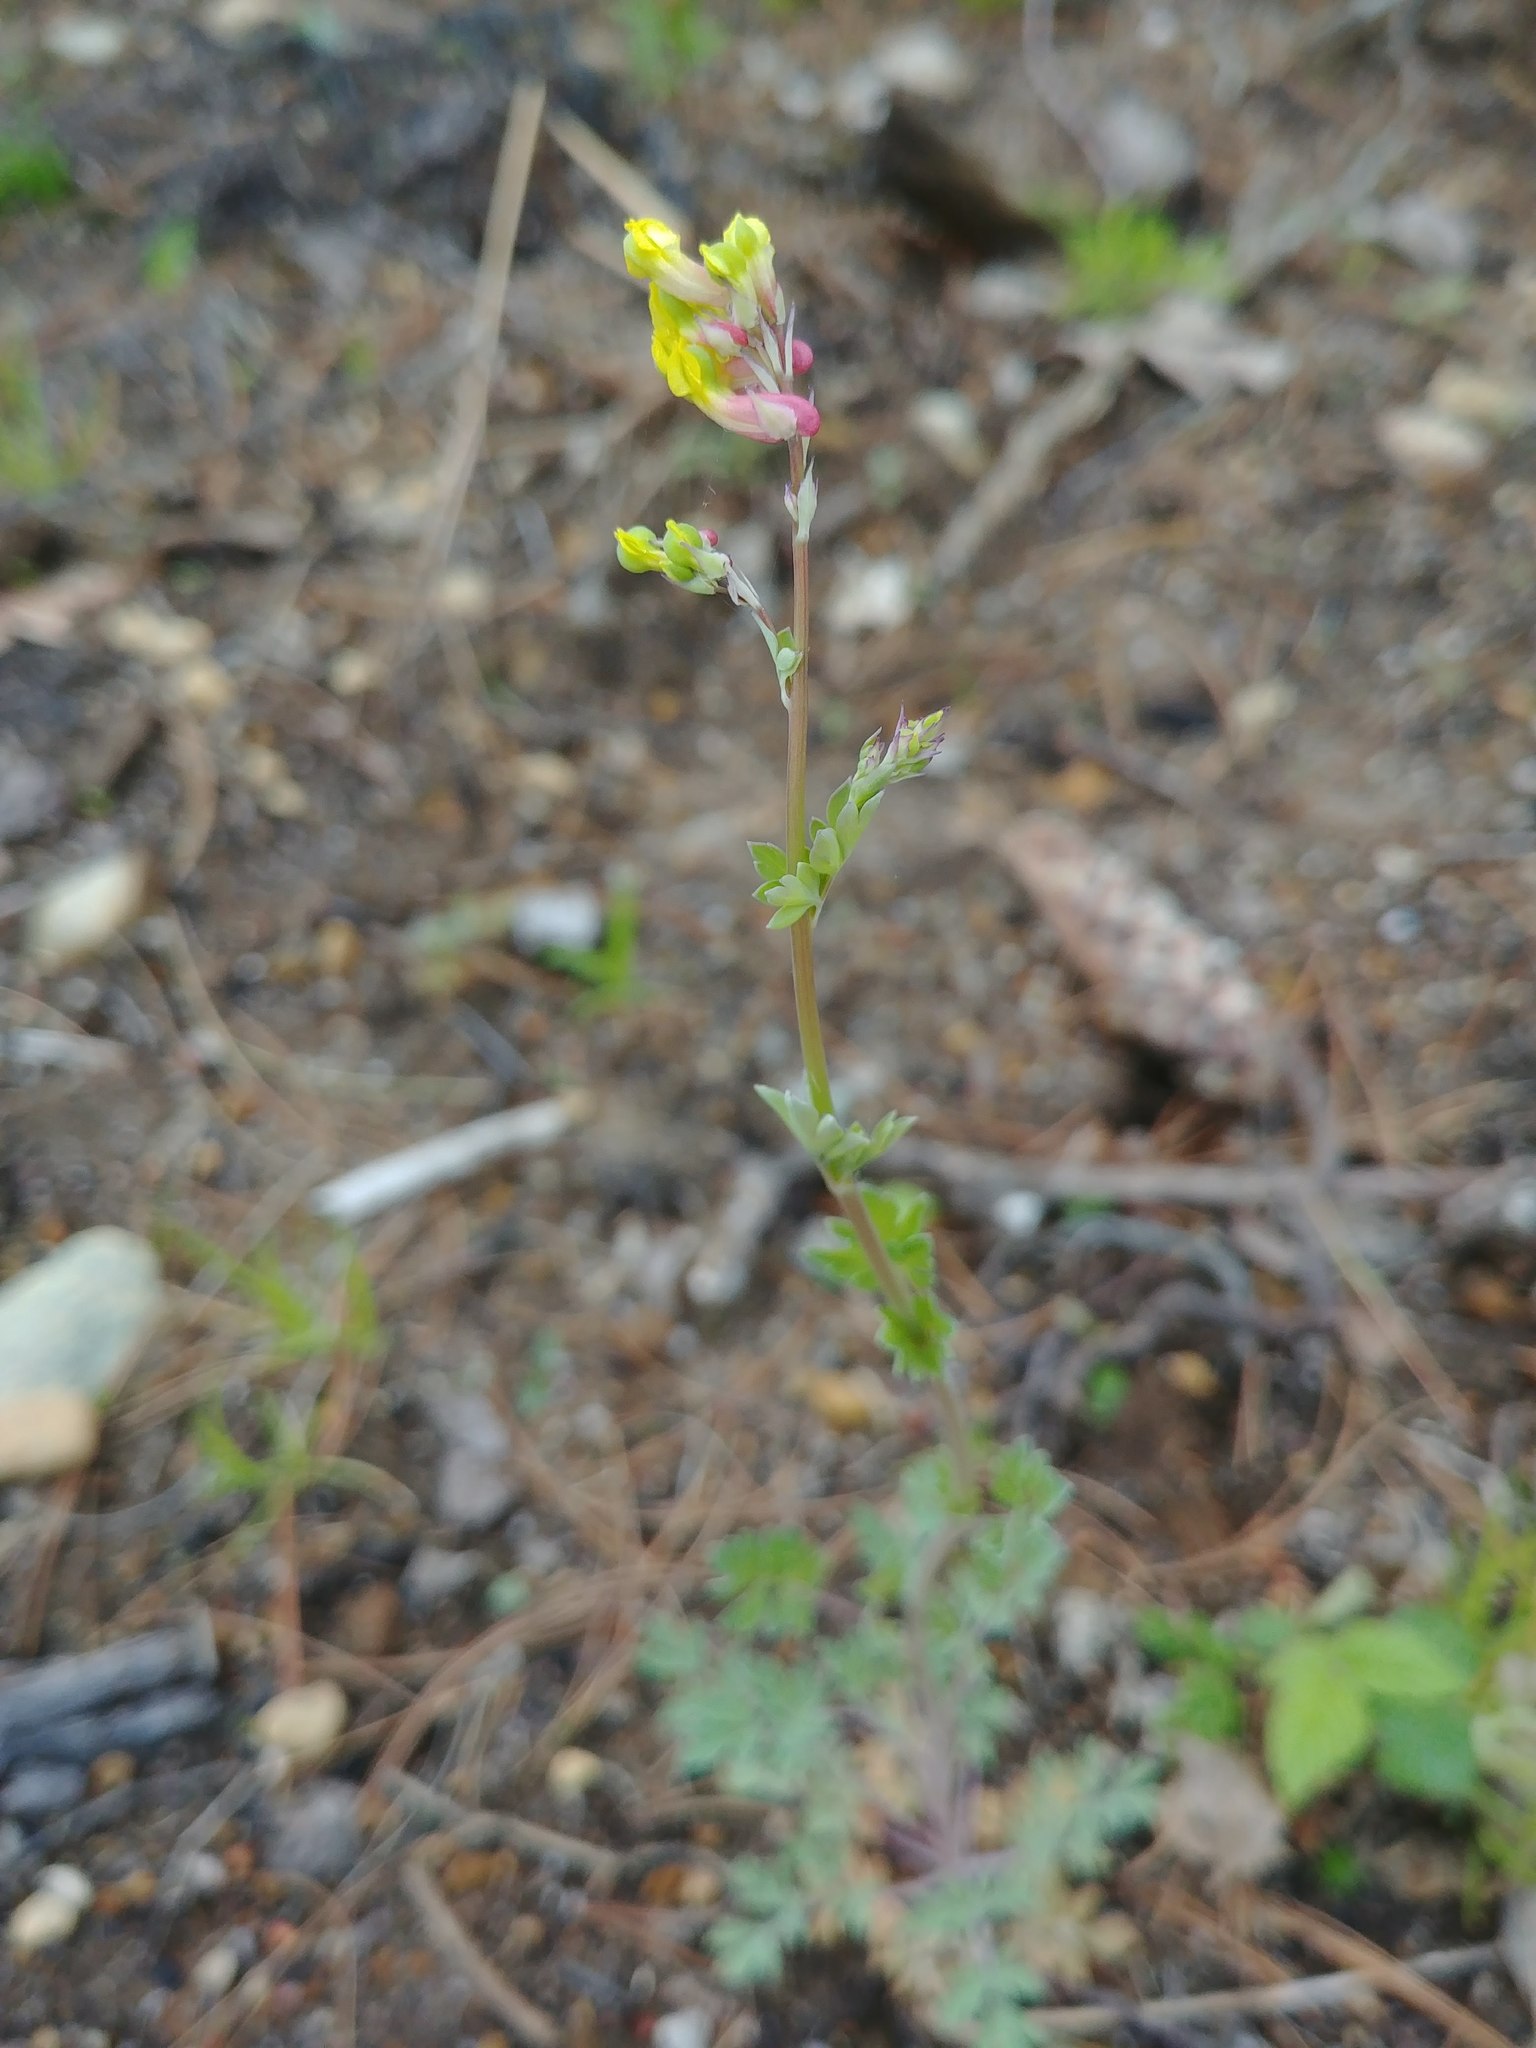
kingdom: Plantae
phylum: Tracheophyta
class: Magnoliopsida
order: Ranunculales
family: Papaveraceae
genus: Capnoides
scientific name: Capnoides sempervirens
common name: Rock harlequin
